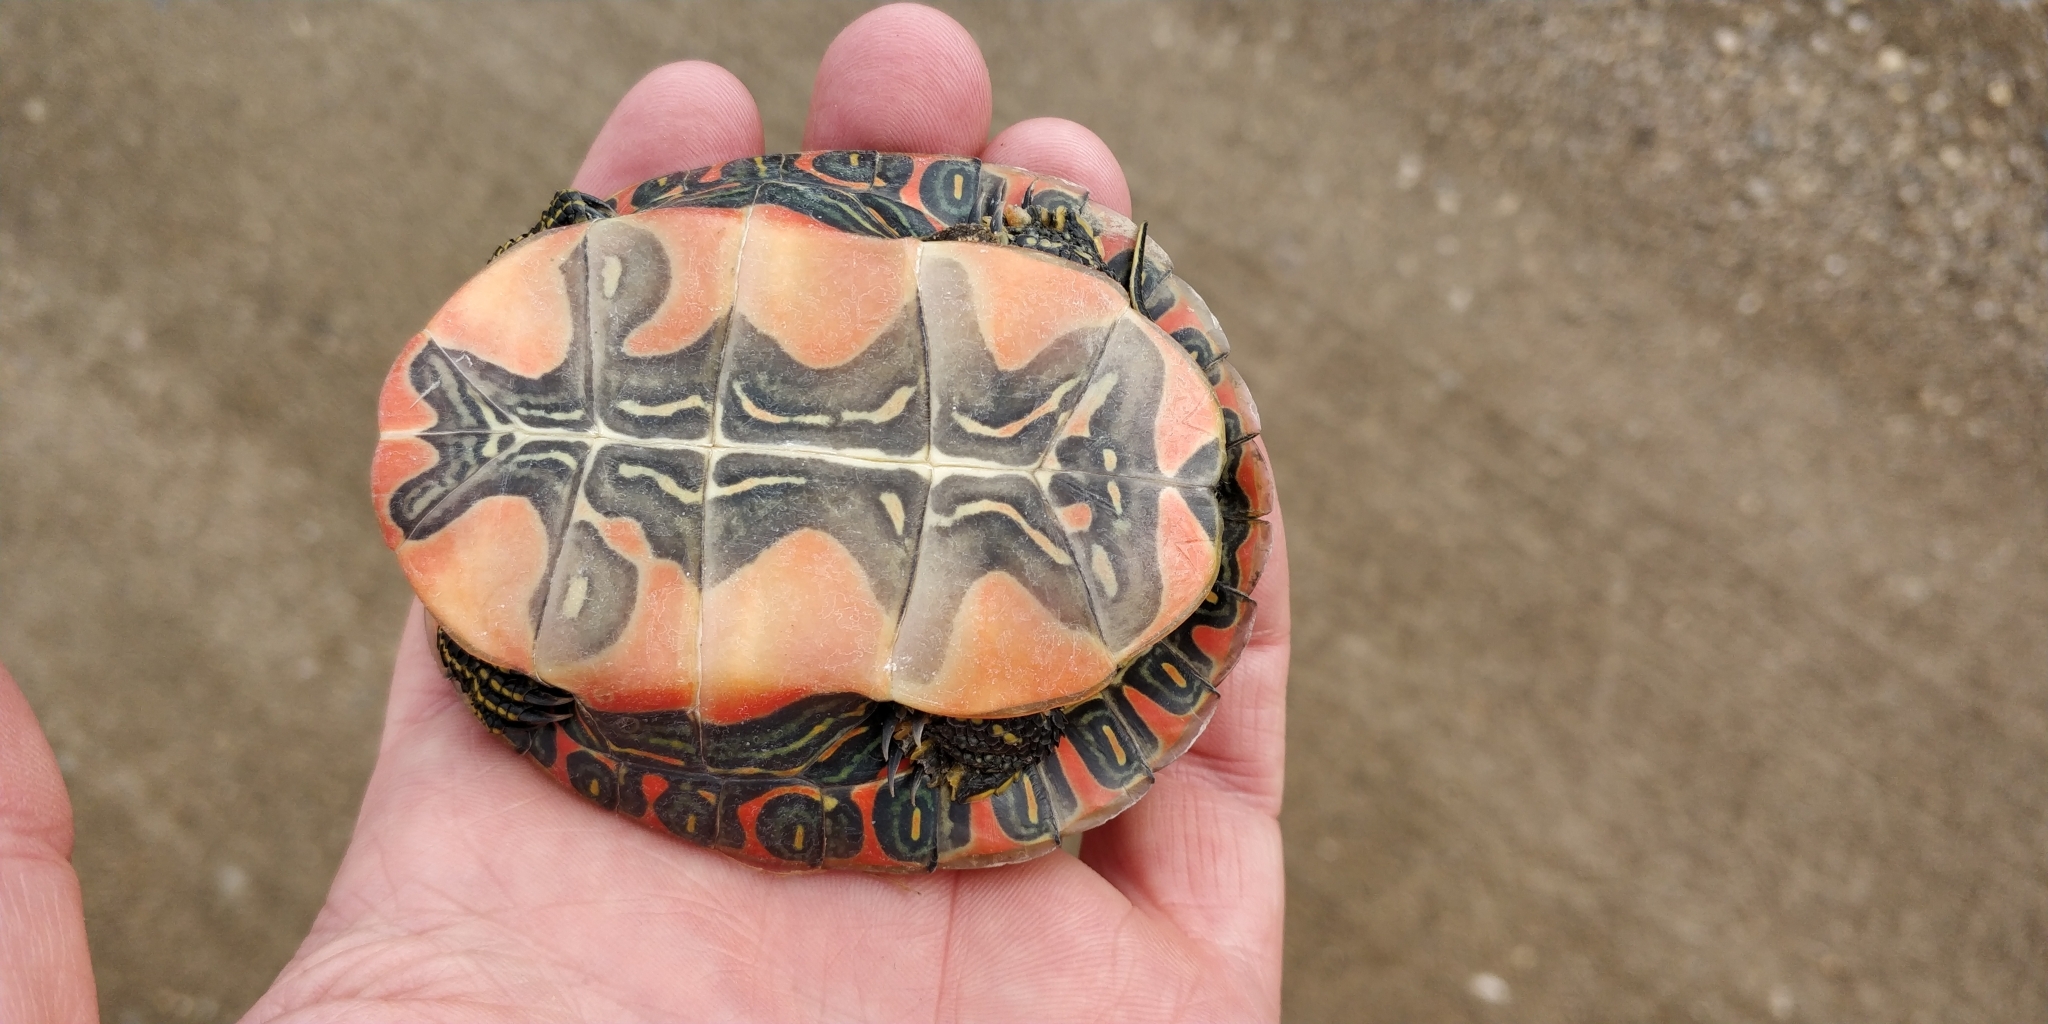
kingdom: Animalia
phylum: Chordata
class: Testudines
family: Emydidae
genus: Chrysemys
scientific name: Chrysemys picta
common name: Painted turtle
